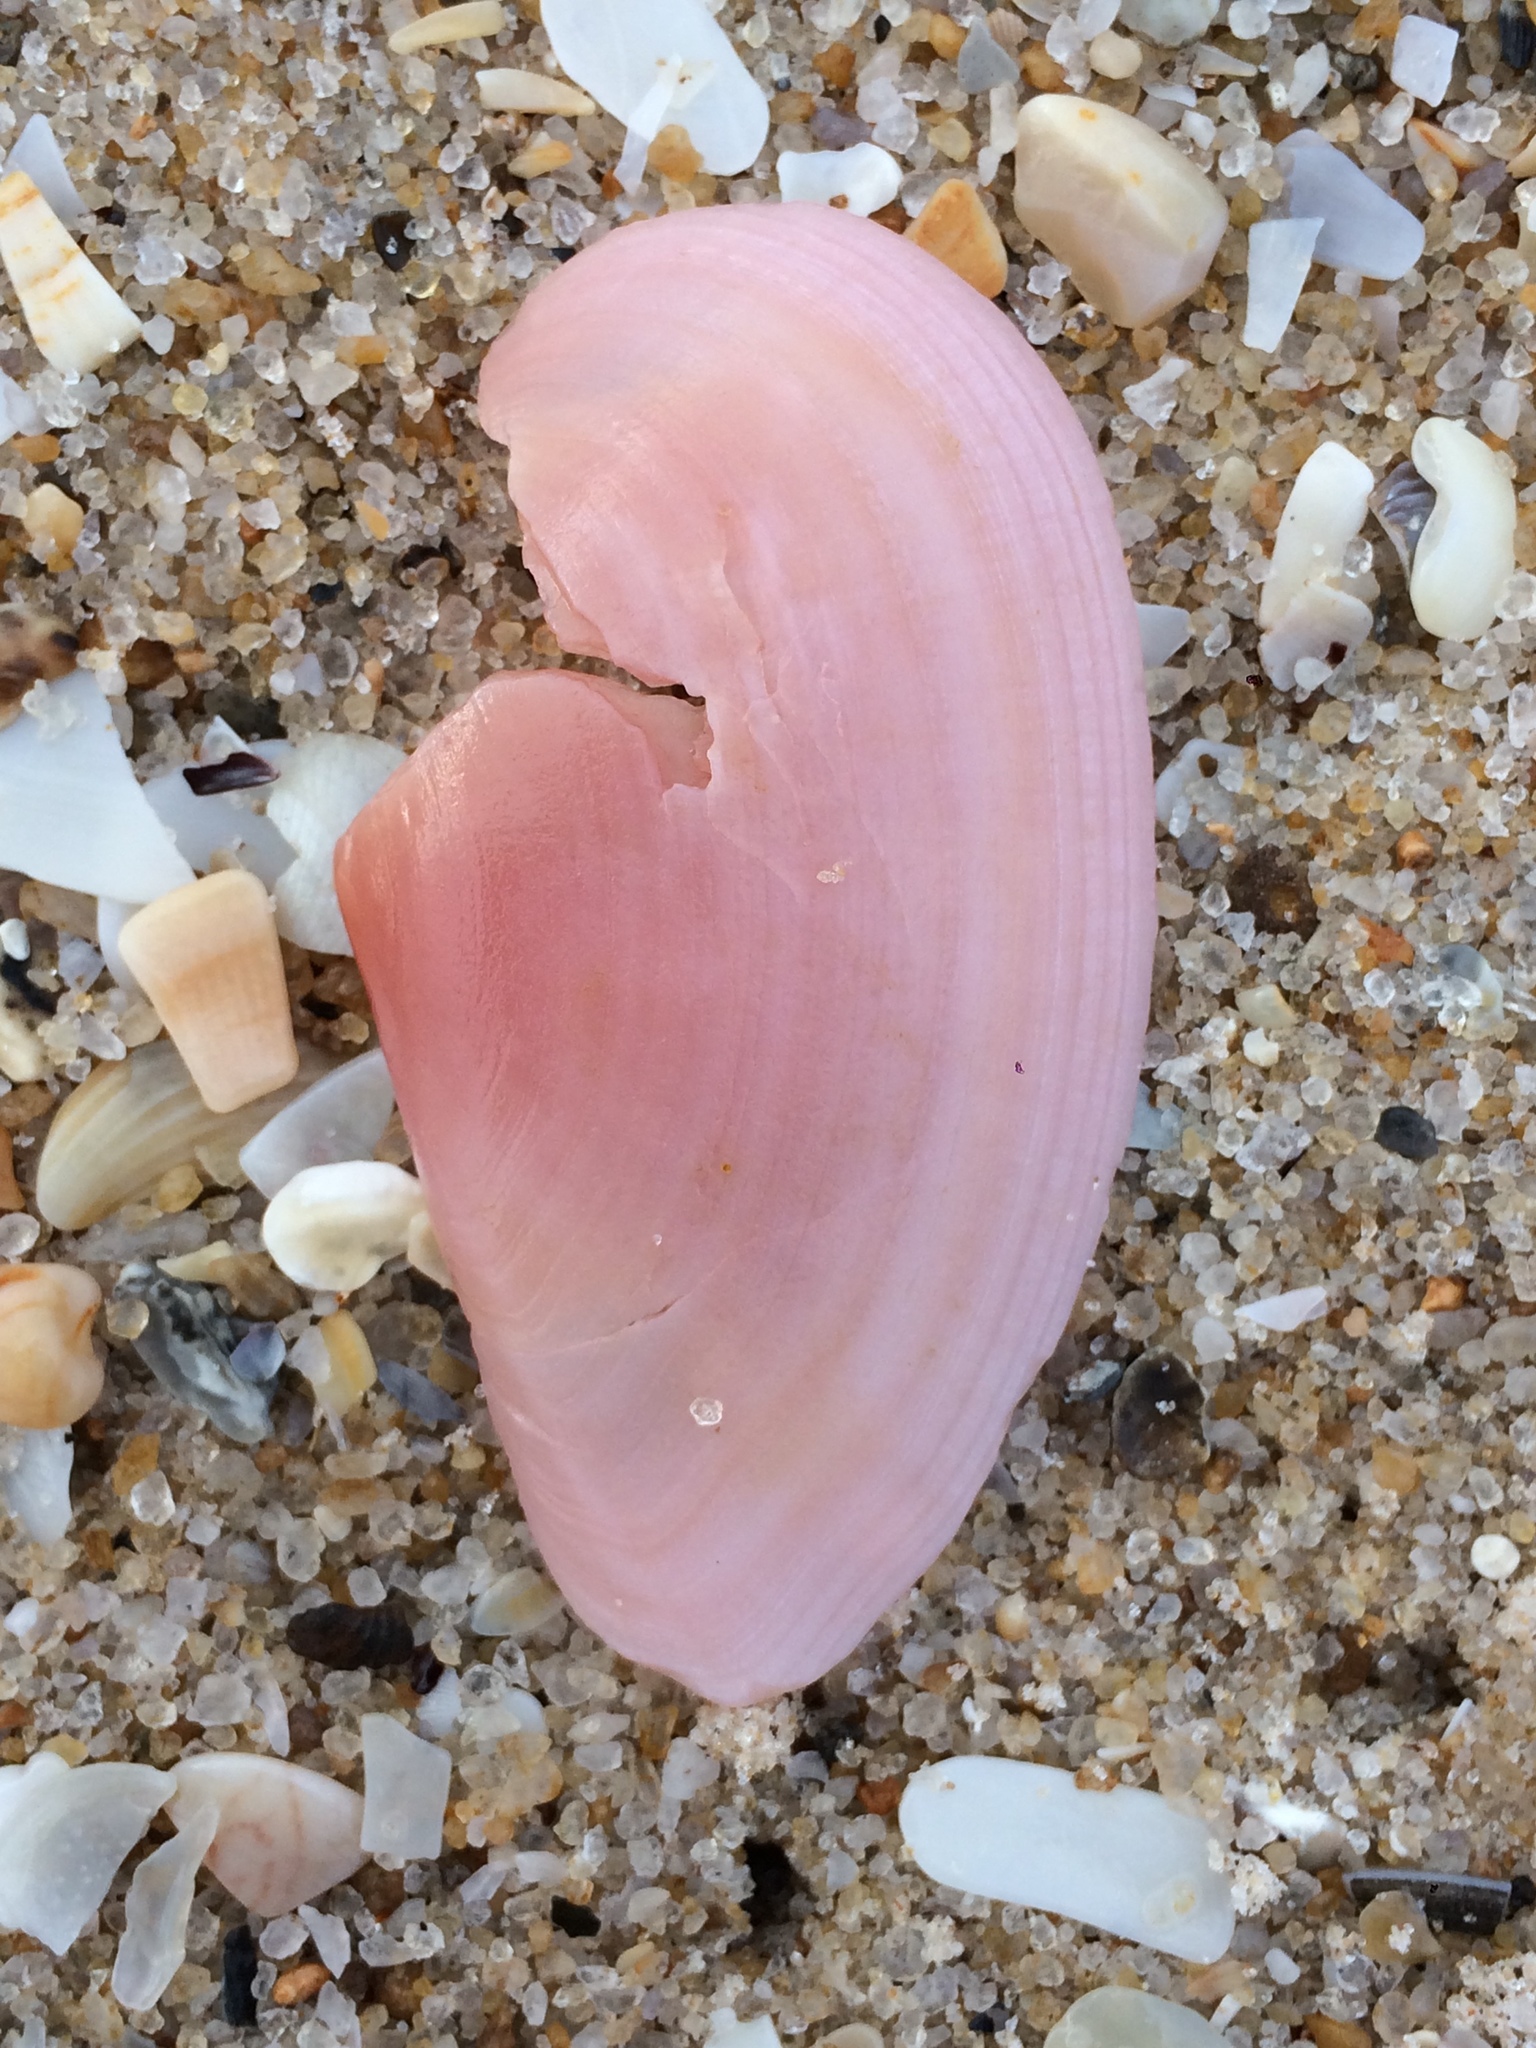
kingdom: Animalia
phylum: Mollusca
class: Bivalvia
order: Cardiida
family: Psammobiidae
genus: Psammotella
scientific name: Psammotella cruenta
